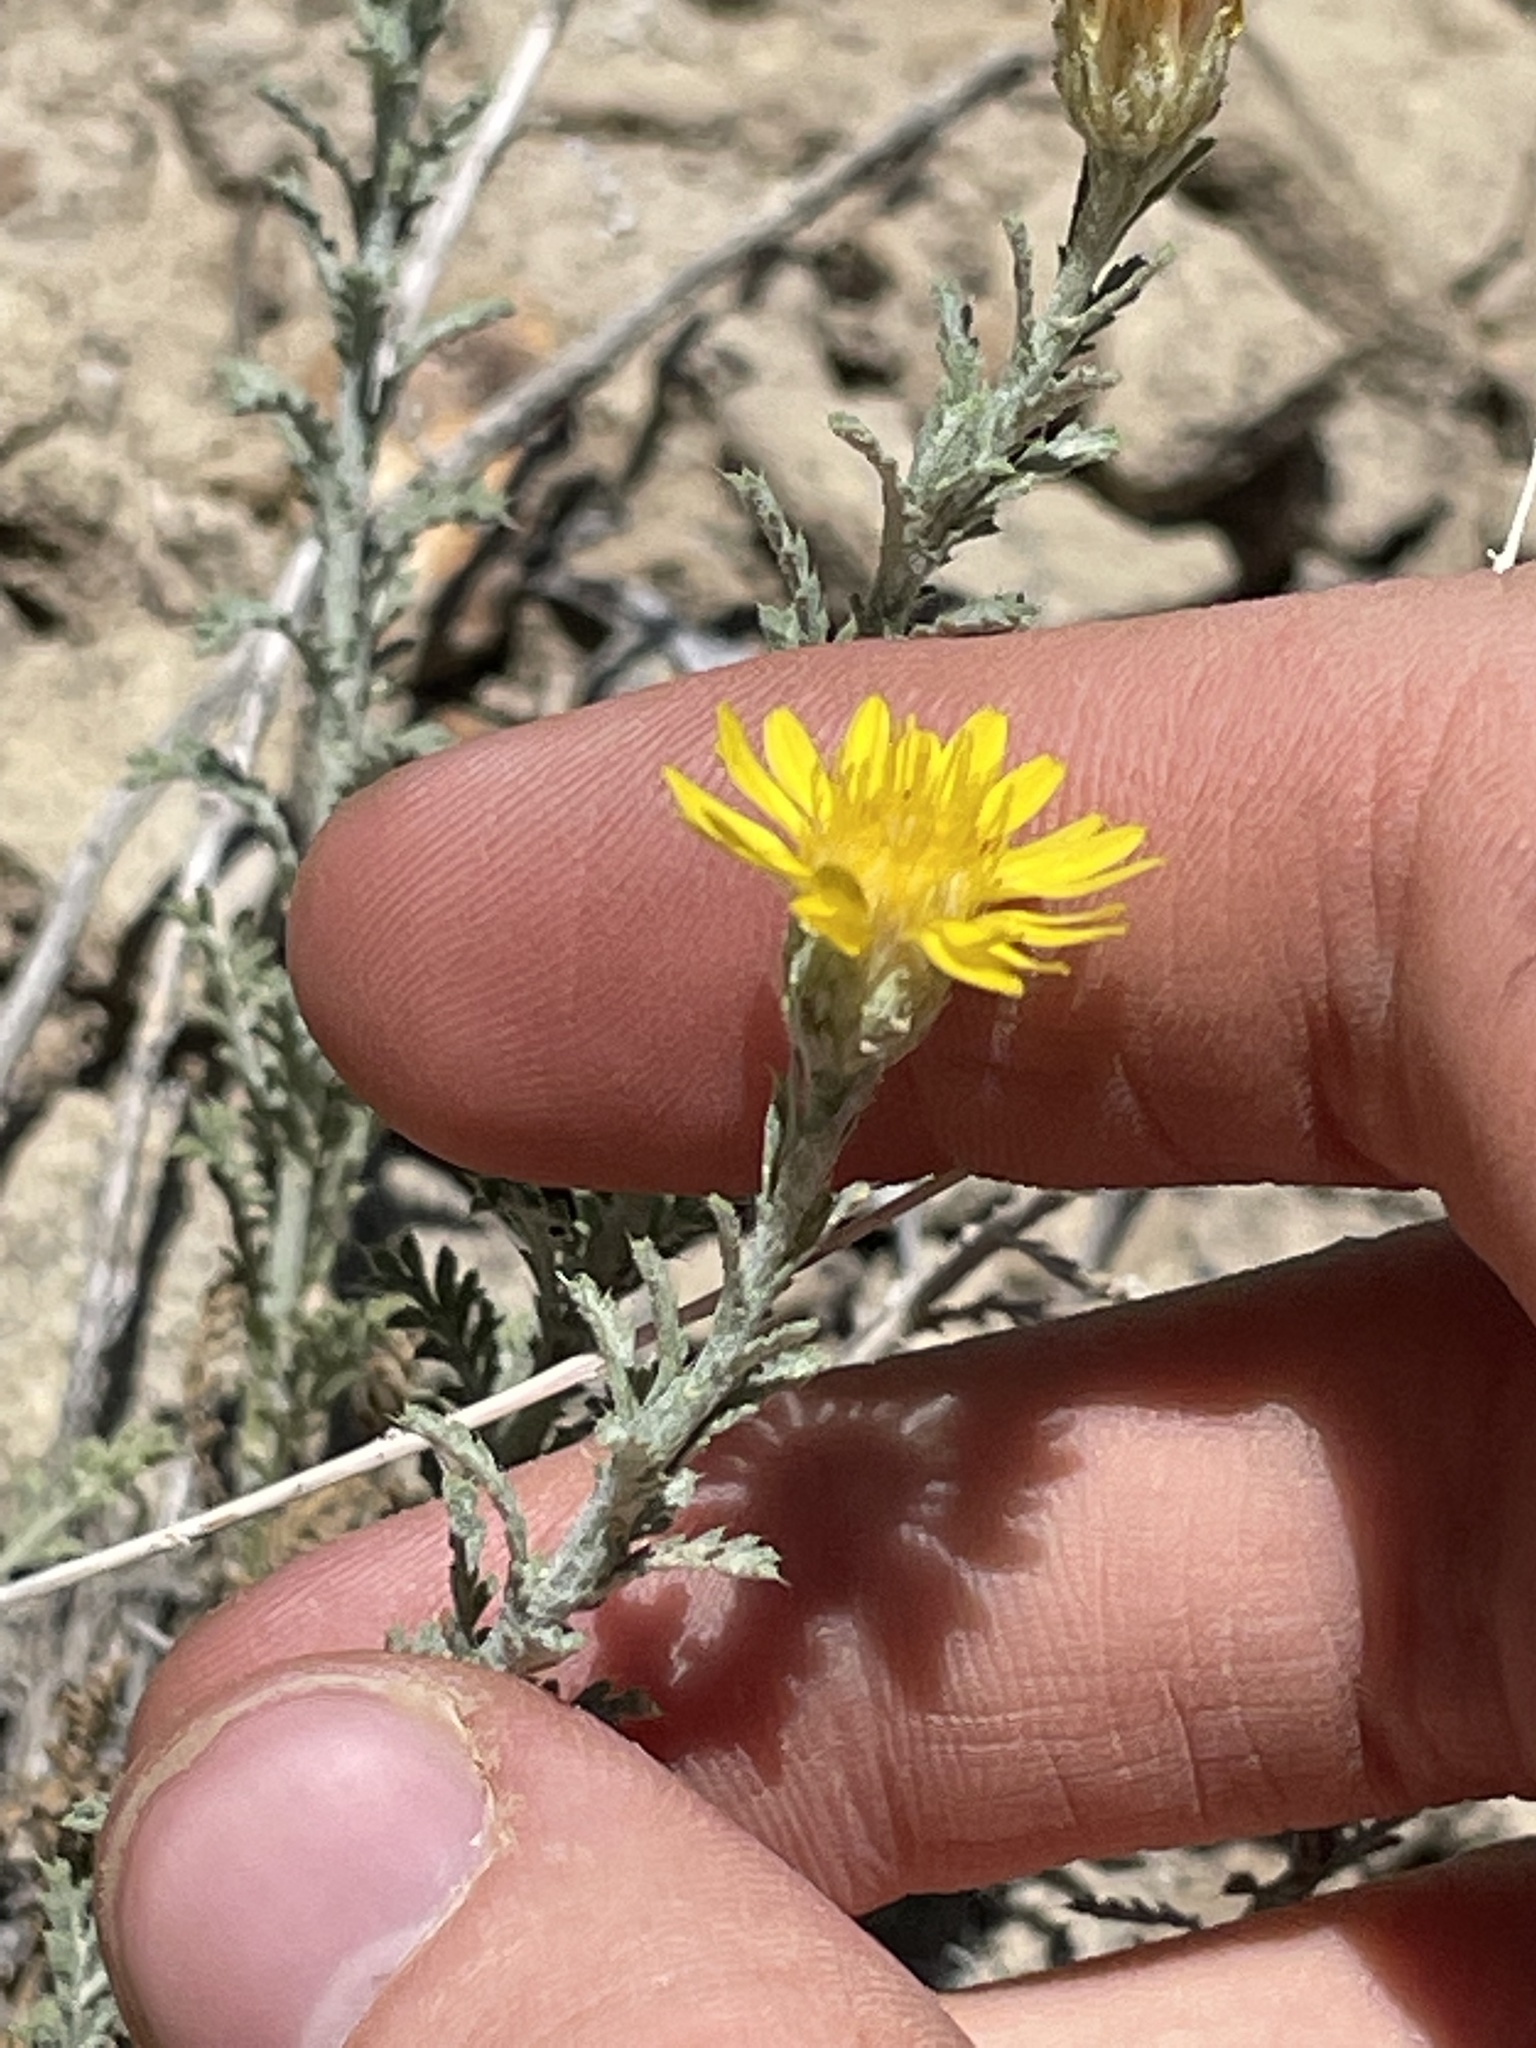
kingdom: Plantae
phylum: Tracheophyta
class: Magnoliopsida
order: Asterales
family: Asteraceae
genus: Xanthisma
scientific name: Xanthisma spinulosum
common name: Spiny goldenweed
